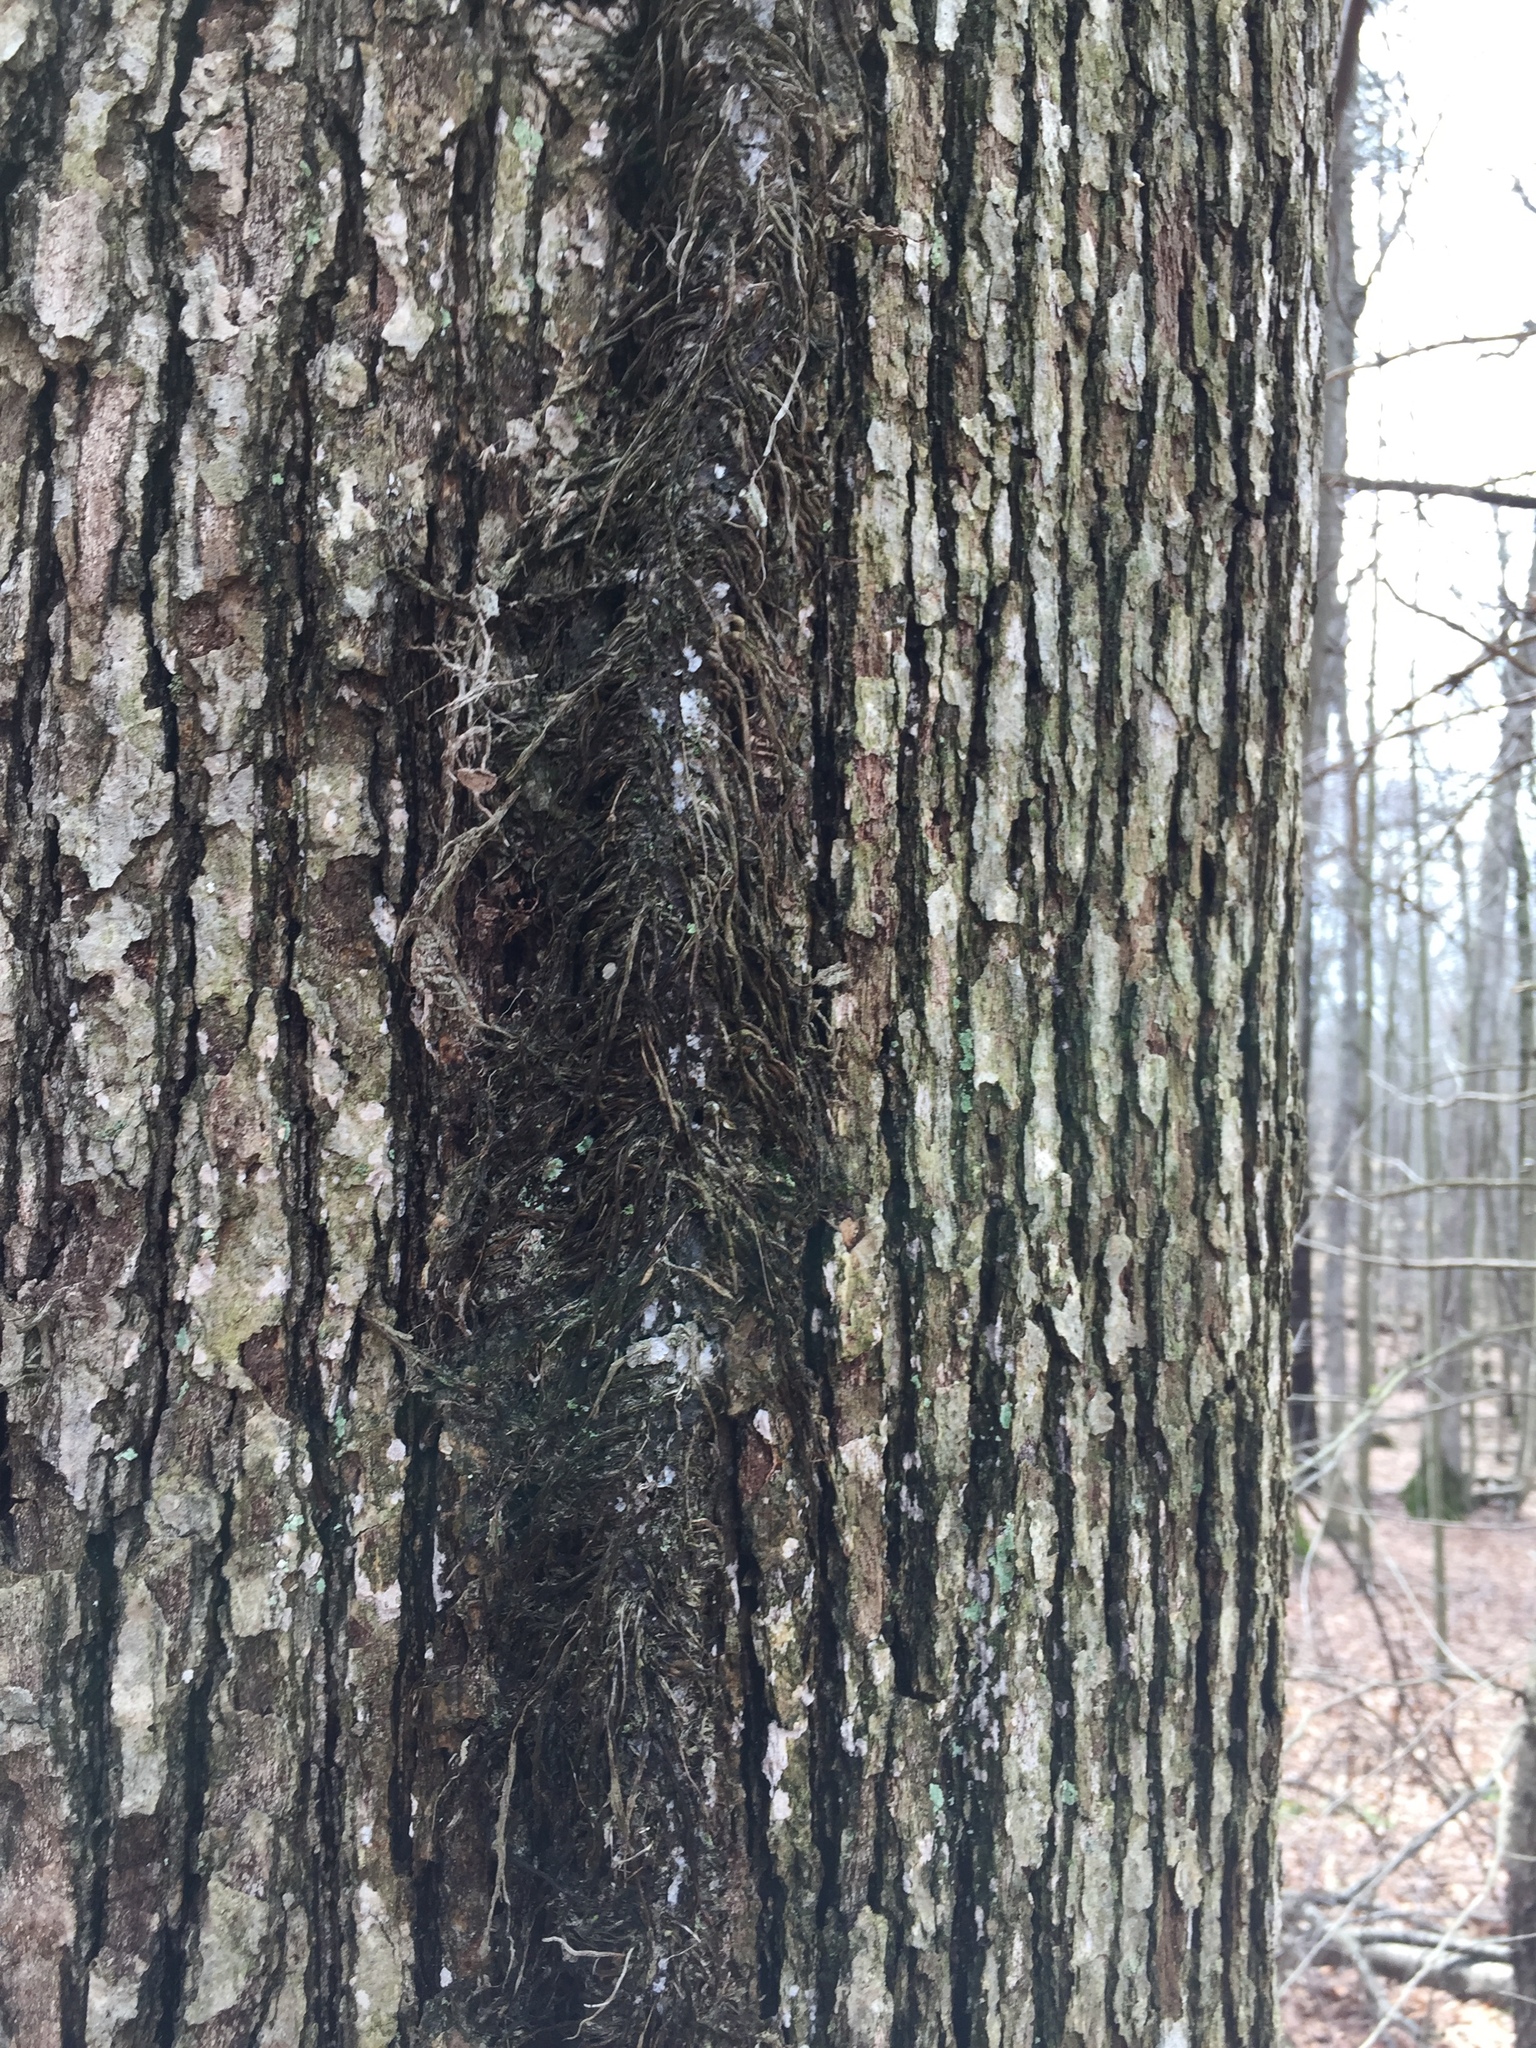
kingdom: Plantae
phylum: Tracheophyta
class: Magnoliopsida
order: Sapindales
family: Anacardiaceae
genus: Toxicodendron
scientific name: Toxicodendron radicans
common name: Poison ivy
